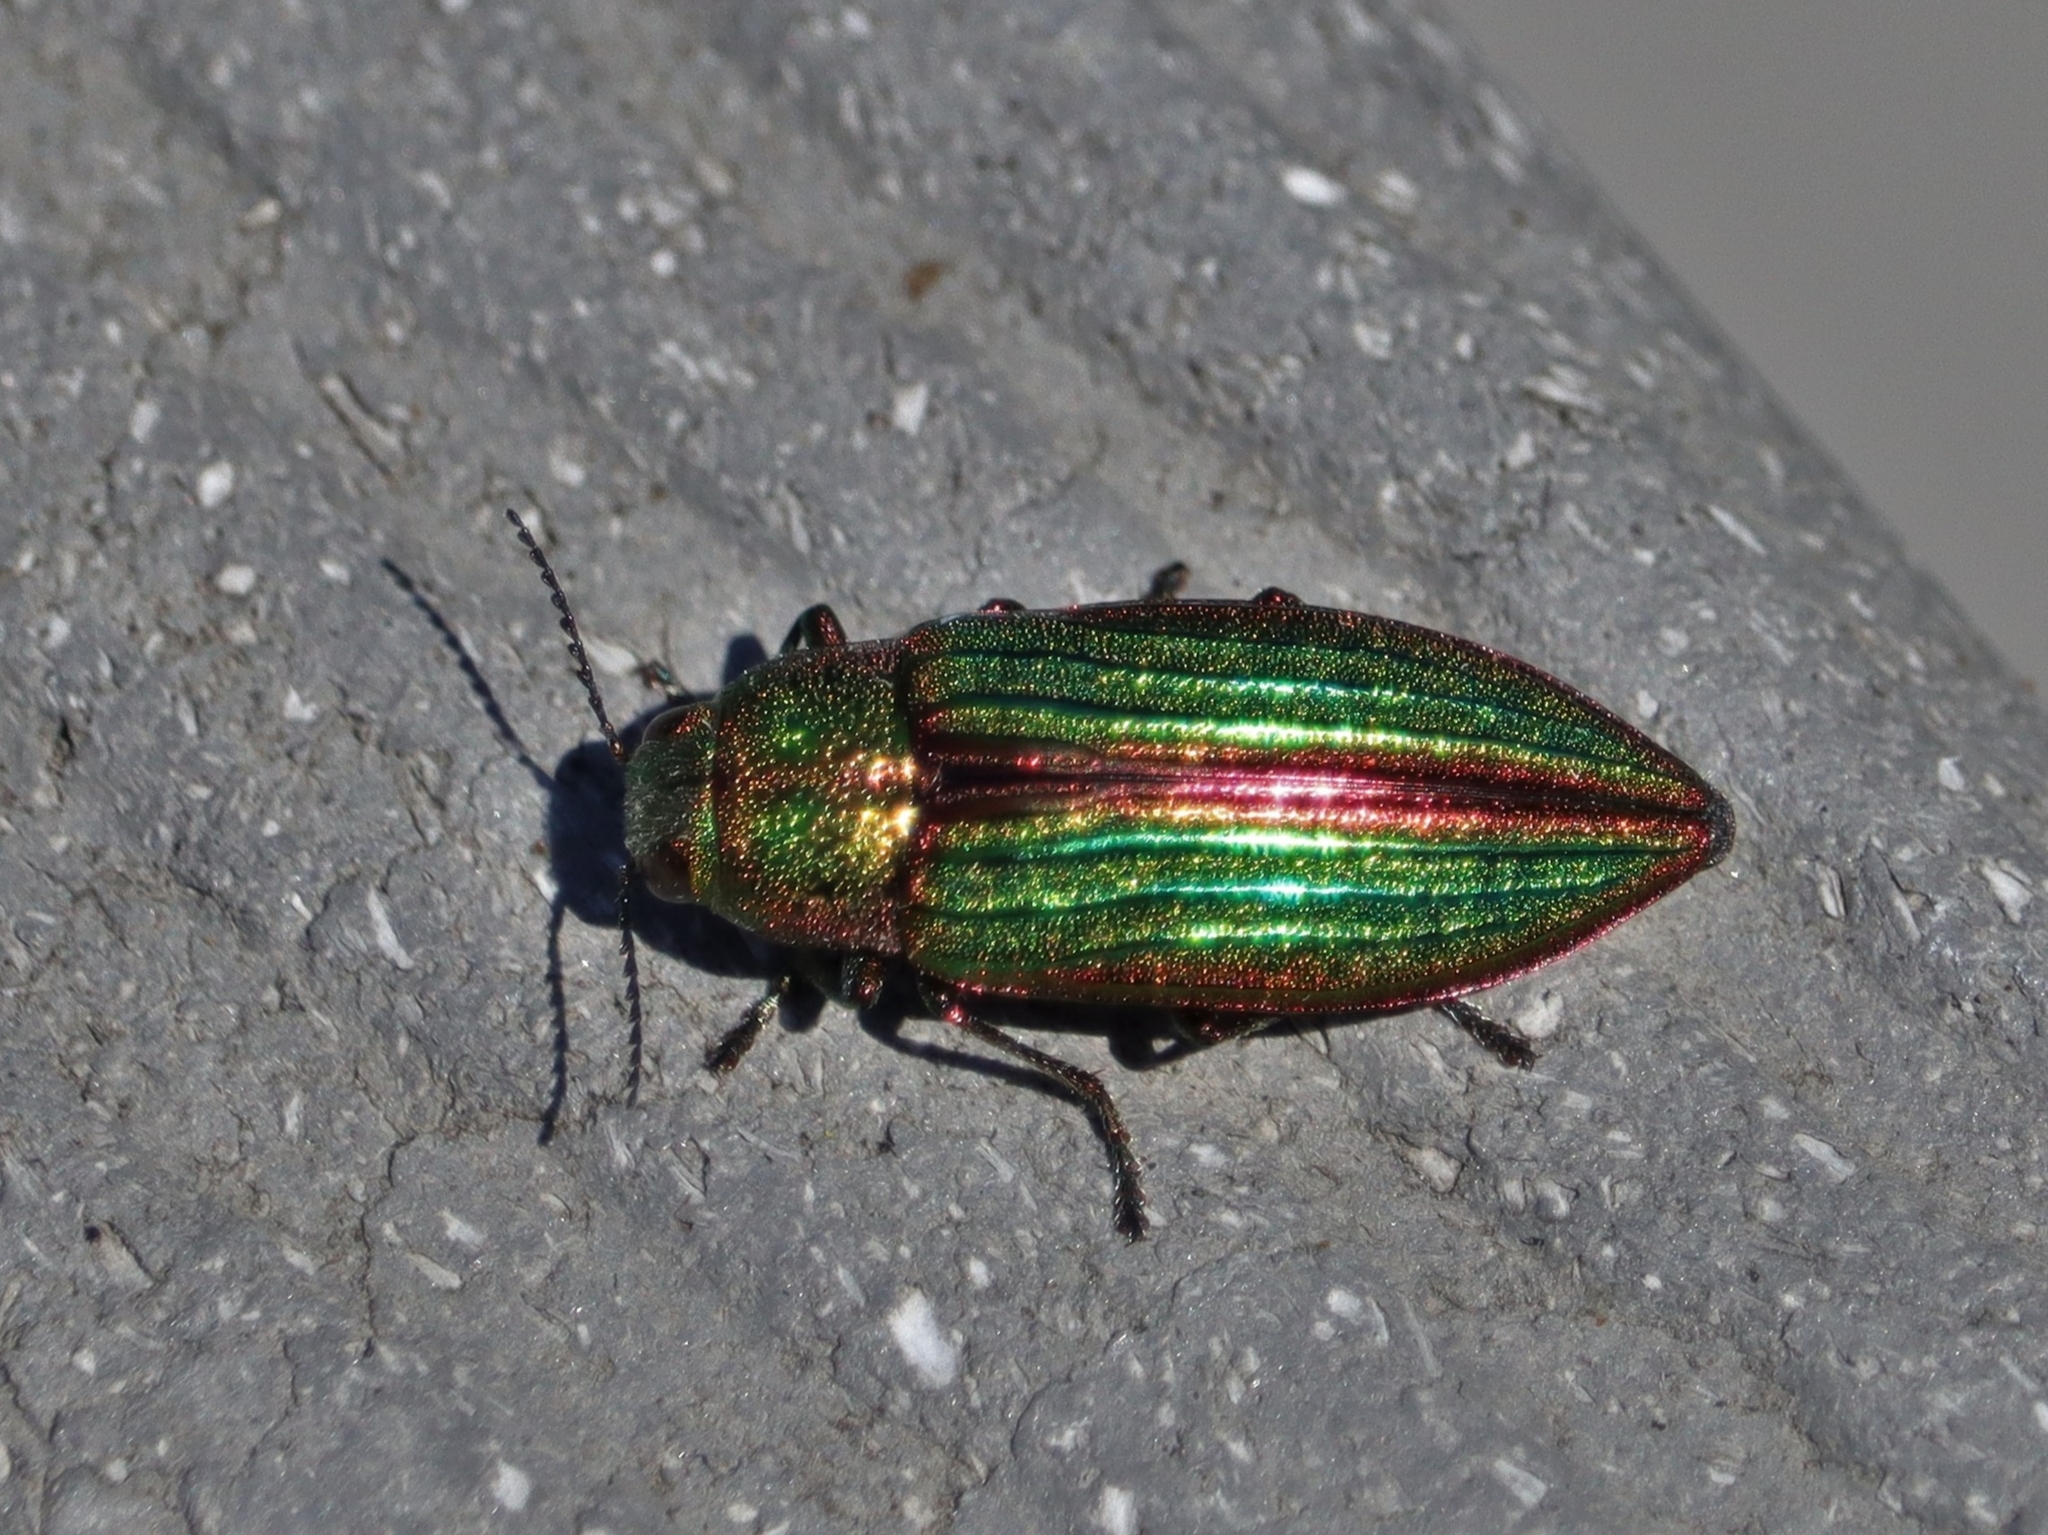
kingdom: Animalia
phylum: Arthropoda
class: Insecta
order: Coleoptera
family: Buprestidae
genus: Buprestis
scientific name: Buprestis aurulenta
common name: Golden buprestid
